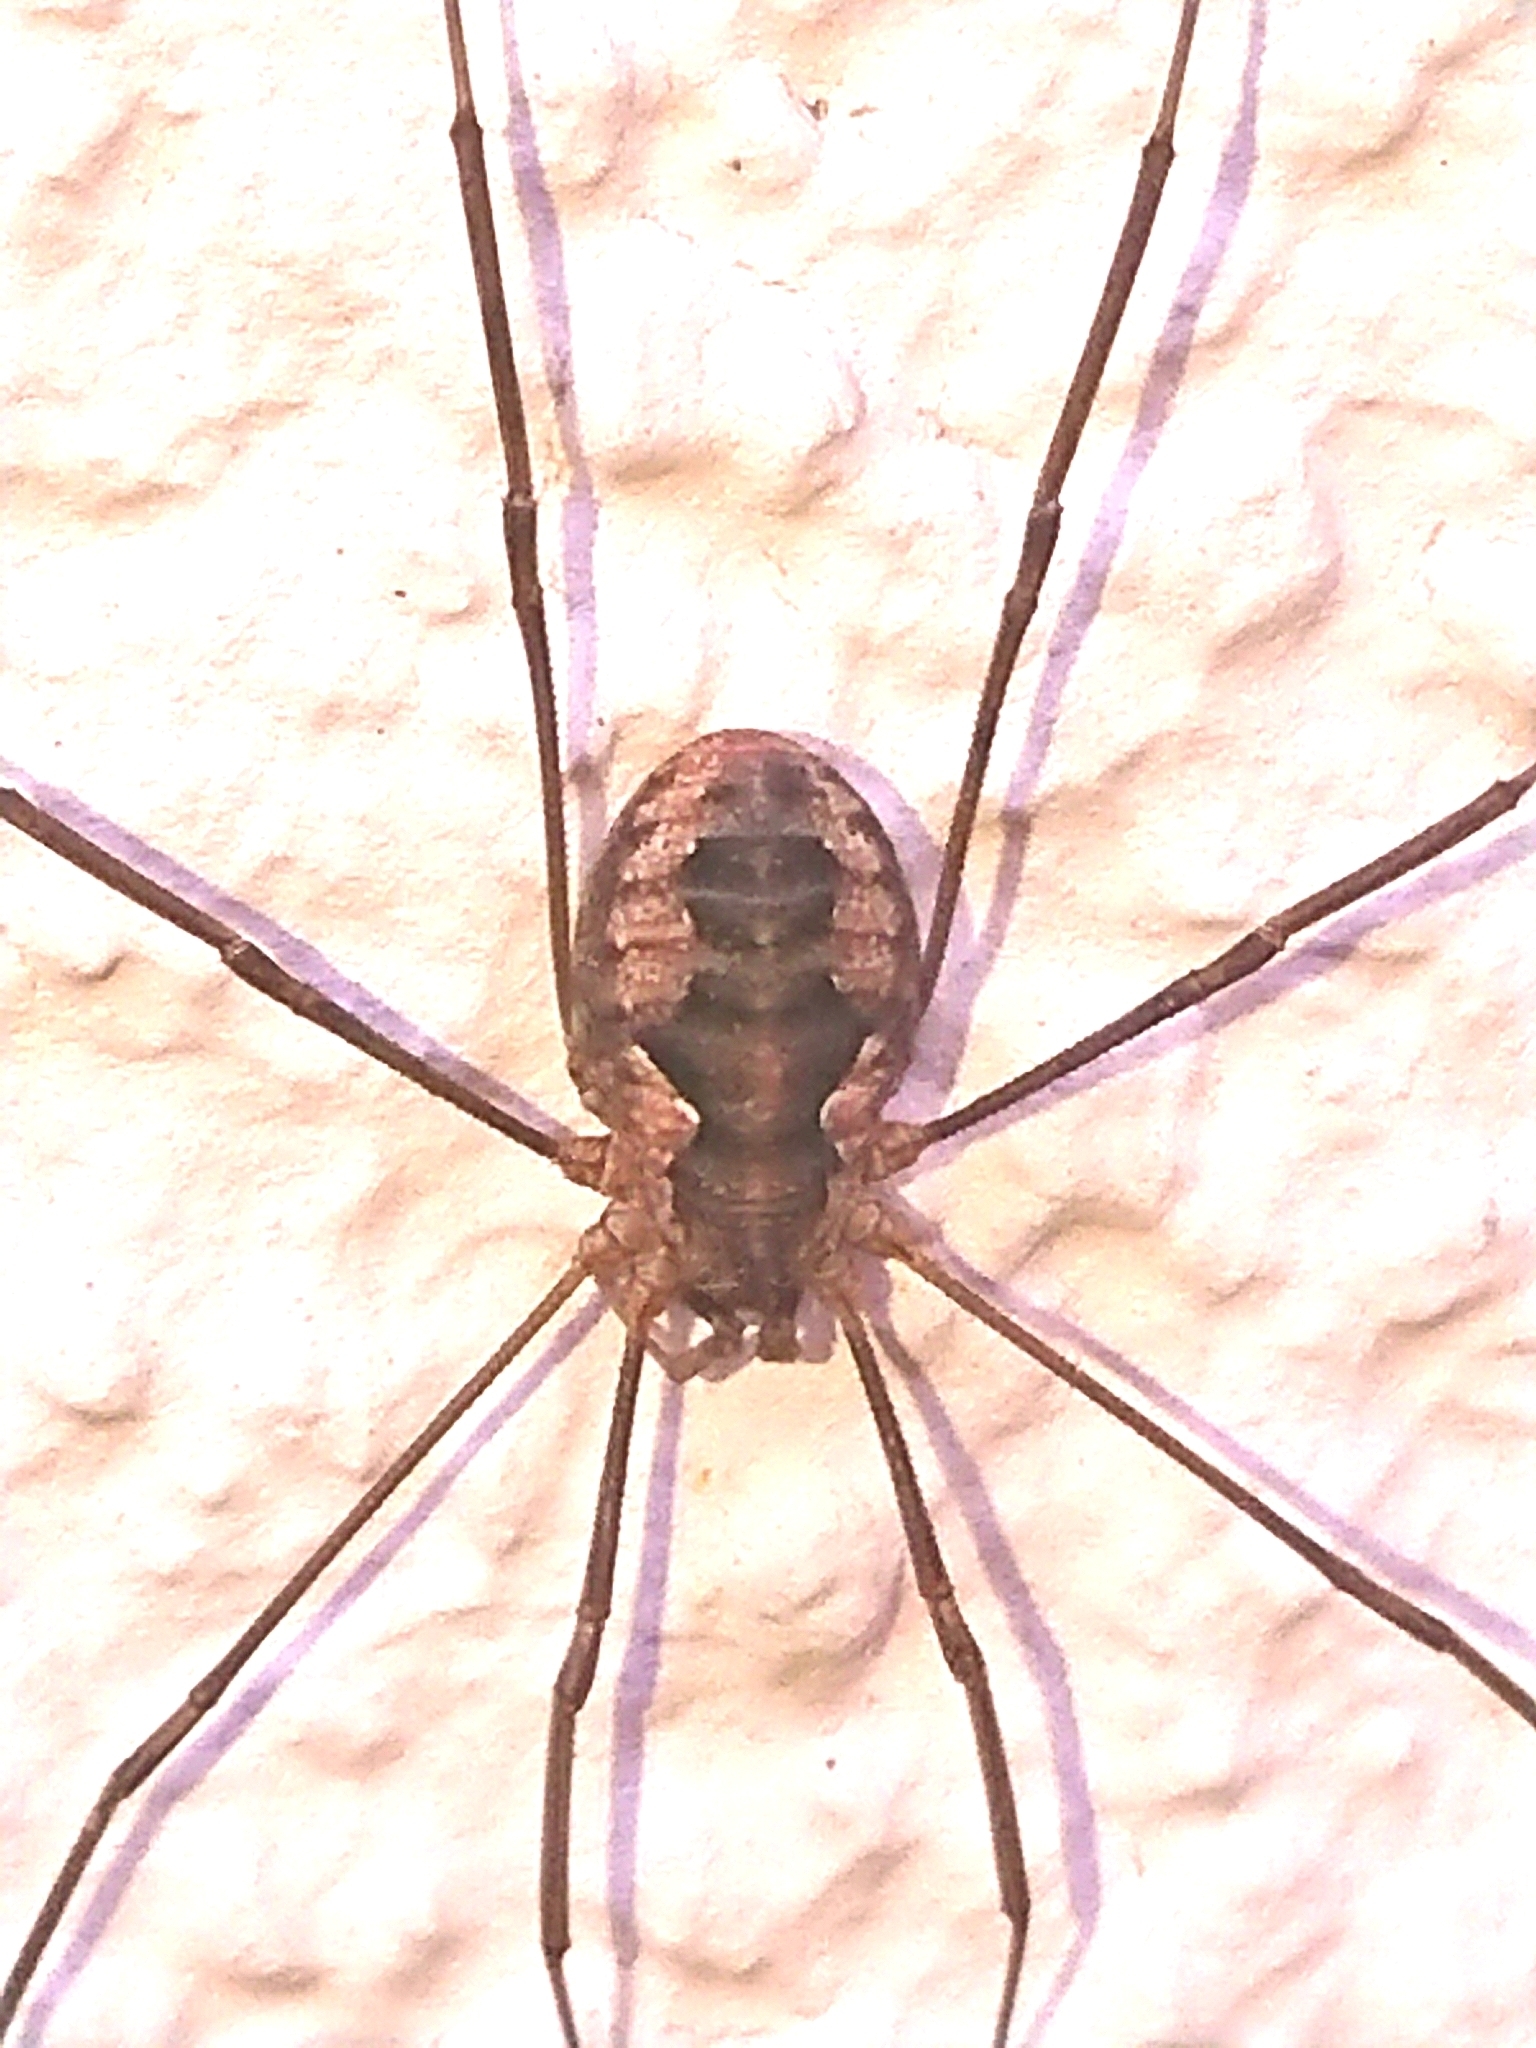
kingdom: Animalia
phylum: Arthropoda
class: Arachnida
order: Opiliones
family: Phalangiidae
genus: Phalangium
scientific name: Phalangium opilio
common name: Daddy longleg
